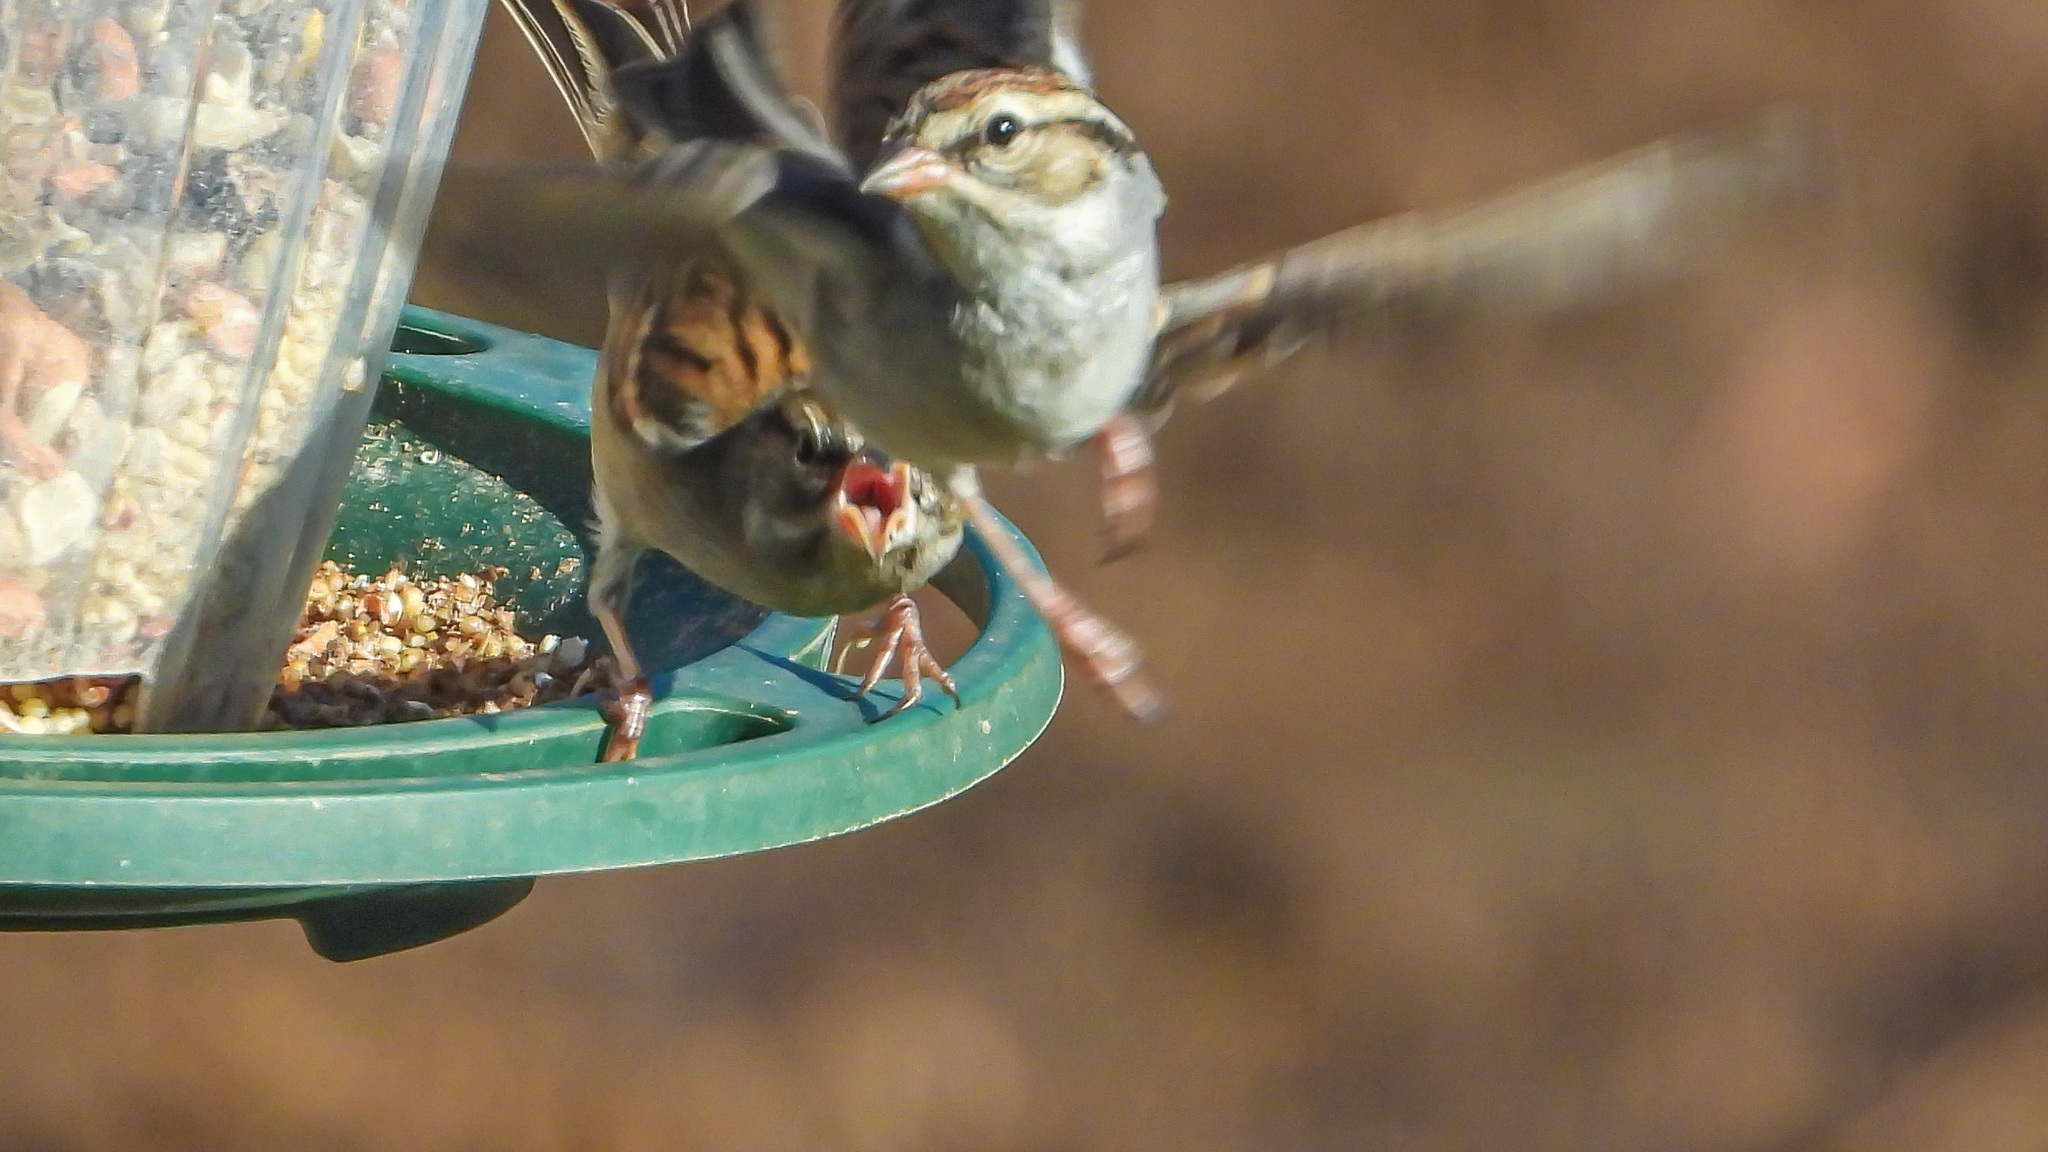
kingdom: Animalia
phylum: Chordata
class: Aves
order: Passeriformes
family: Passerellidae
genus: Spizella
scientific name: Spizella passerina
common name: Chipping sparrow
